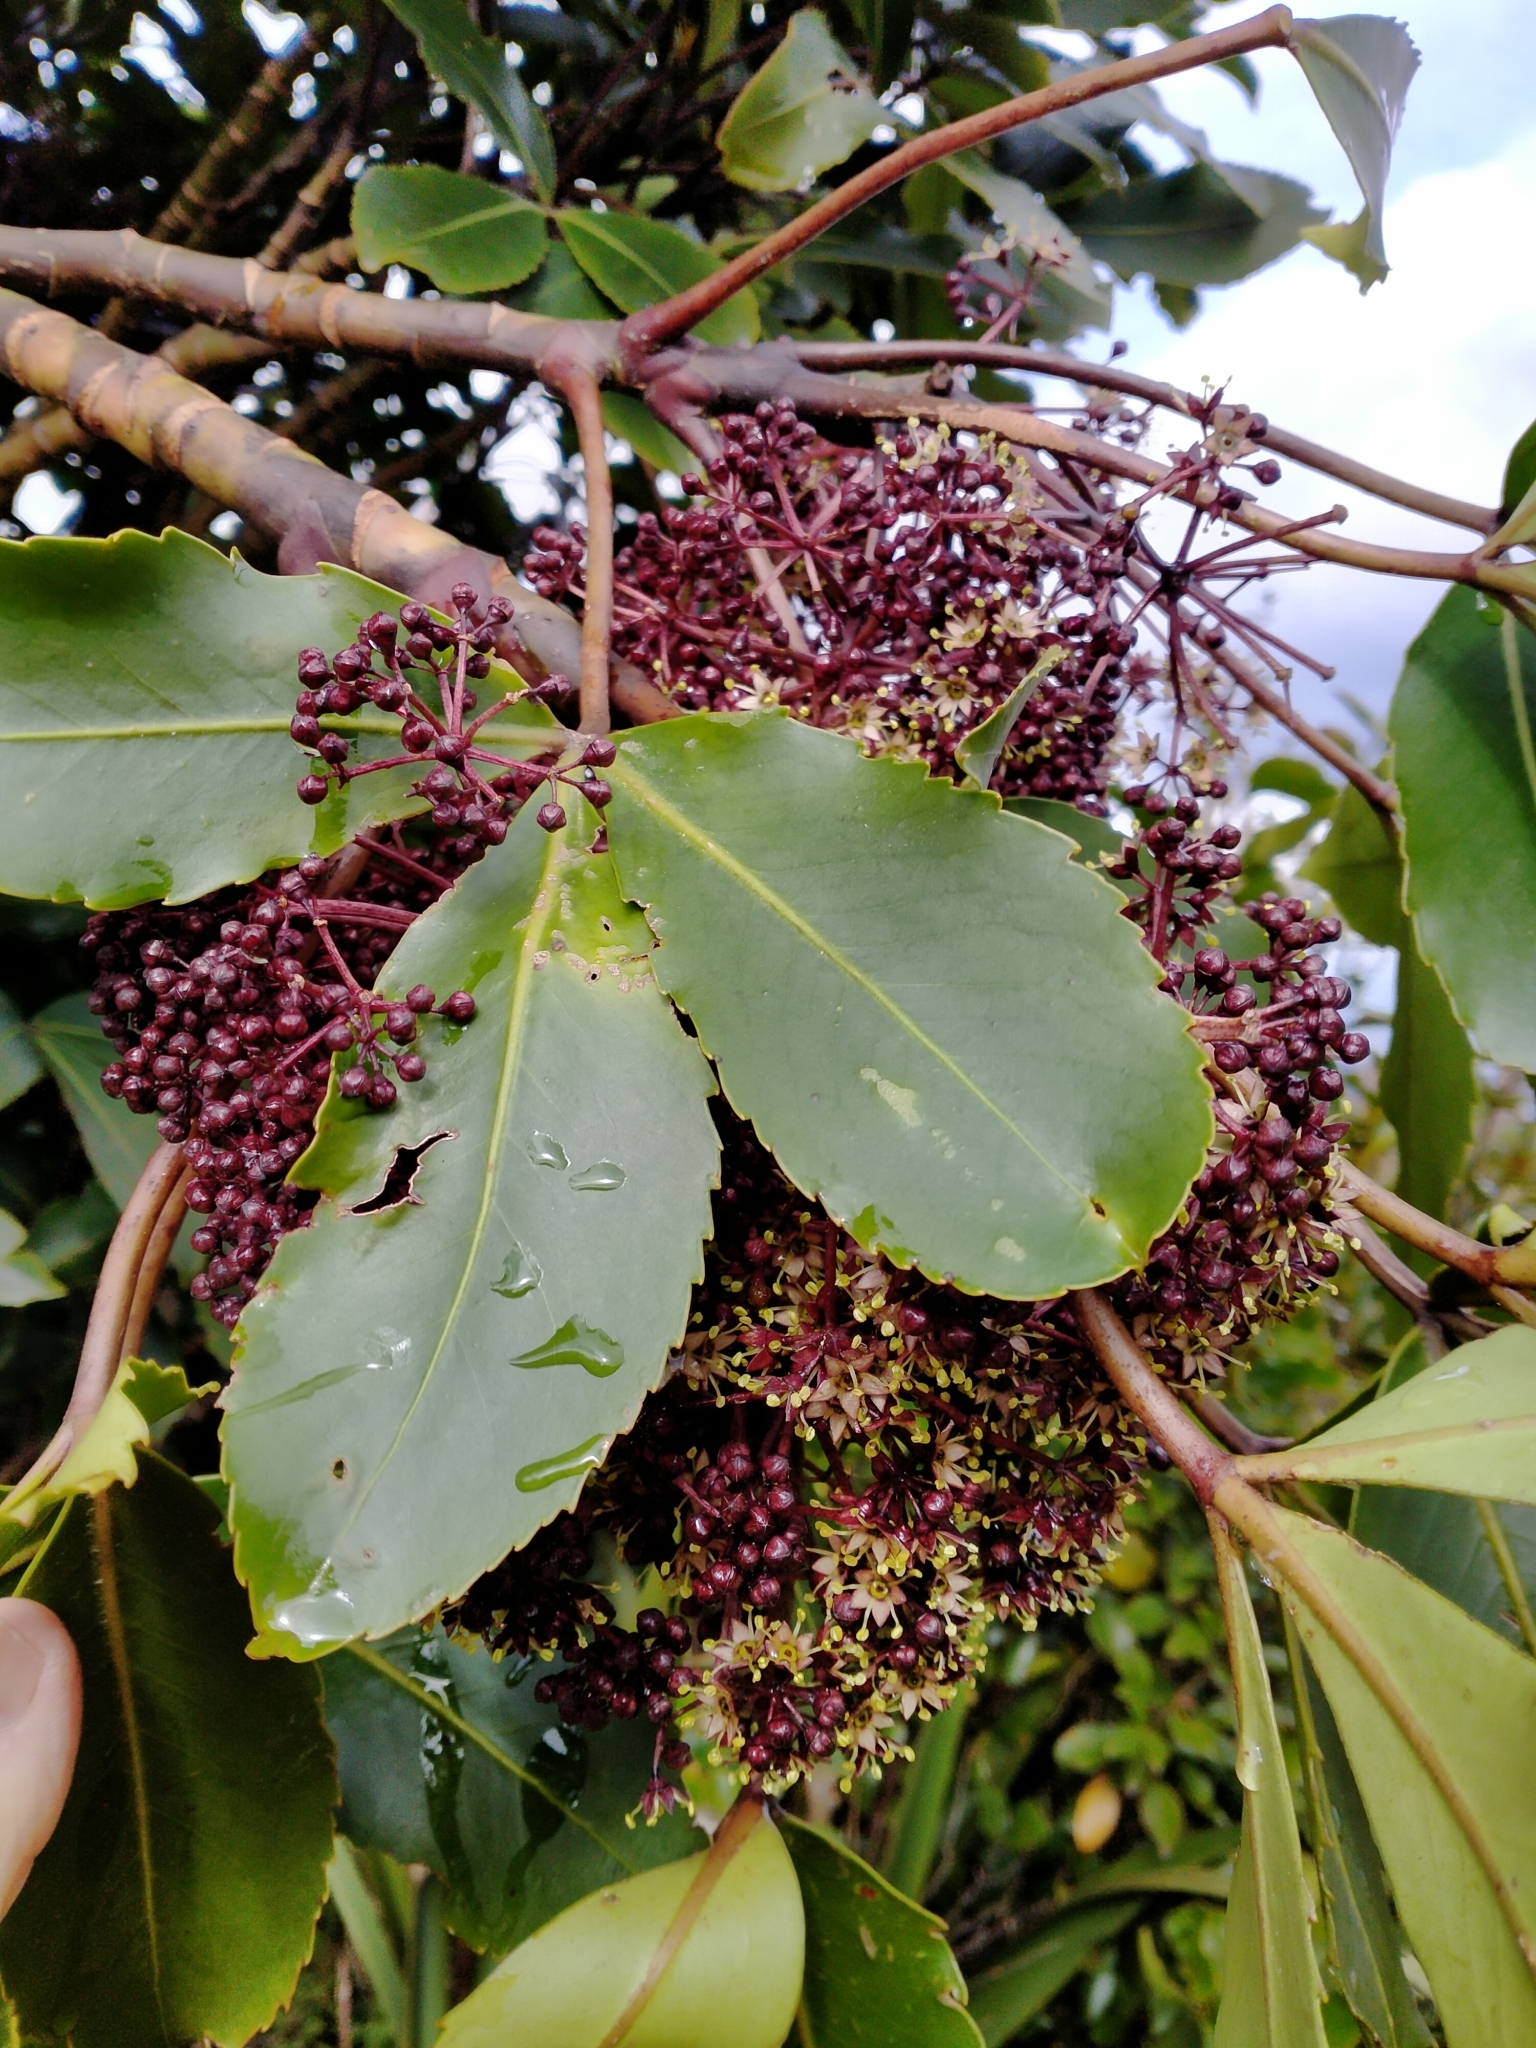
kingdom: Plantae
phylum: Tracheophyta
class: Magnoliopsida
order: Apiales
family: Araliaceae
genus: Neopanax
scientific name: Neopanax colensoi
